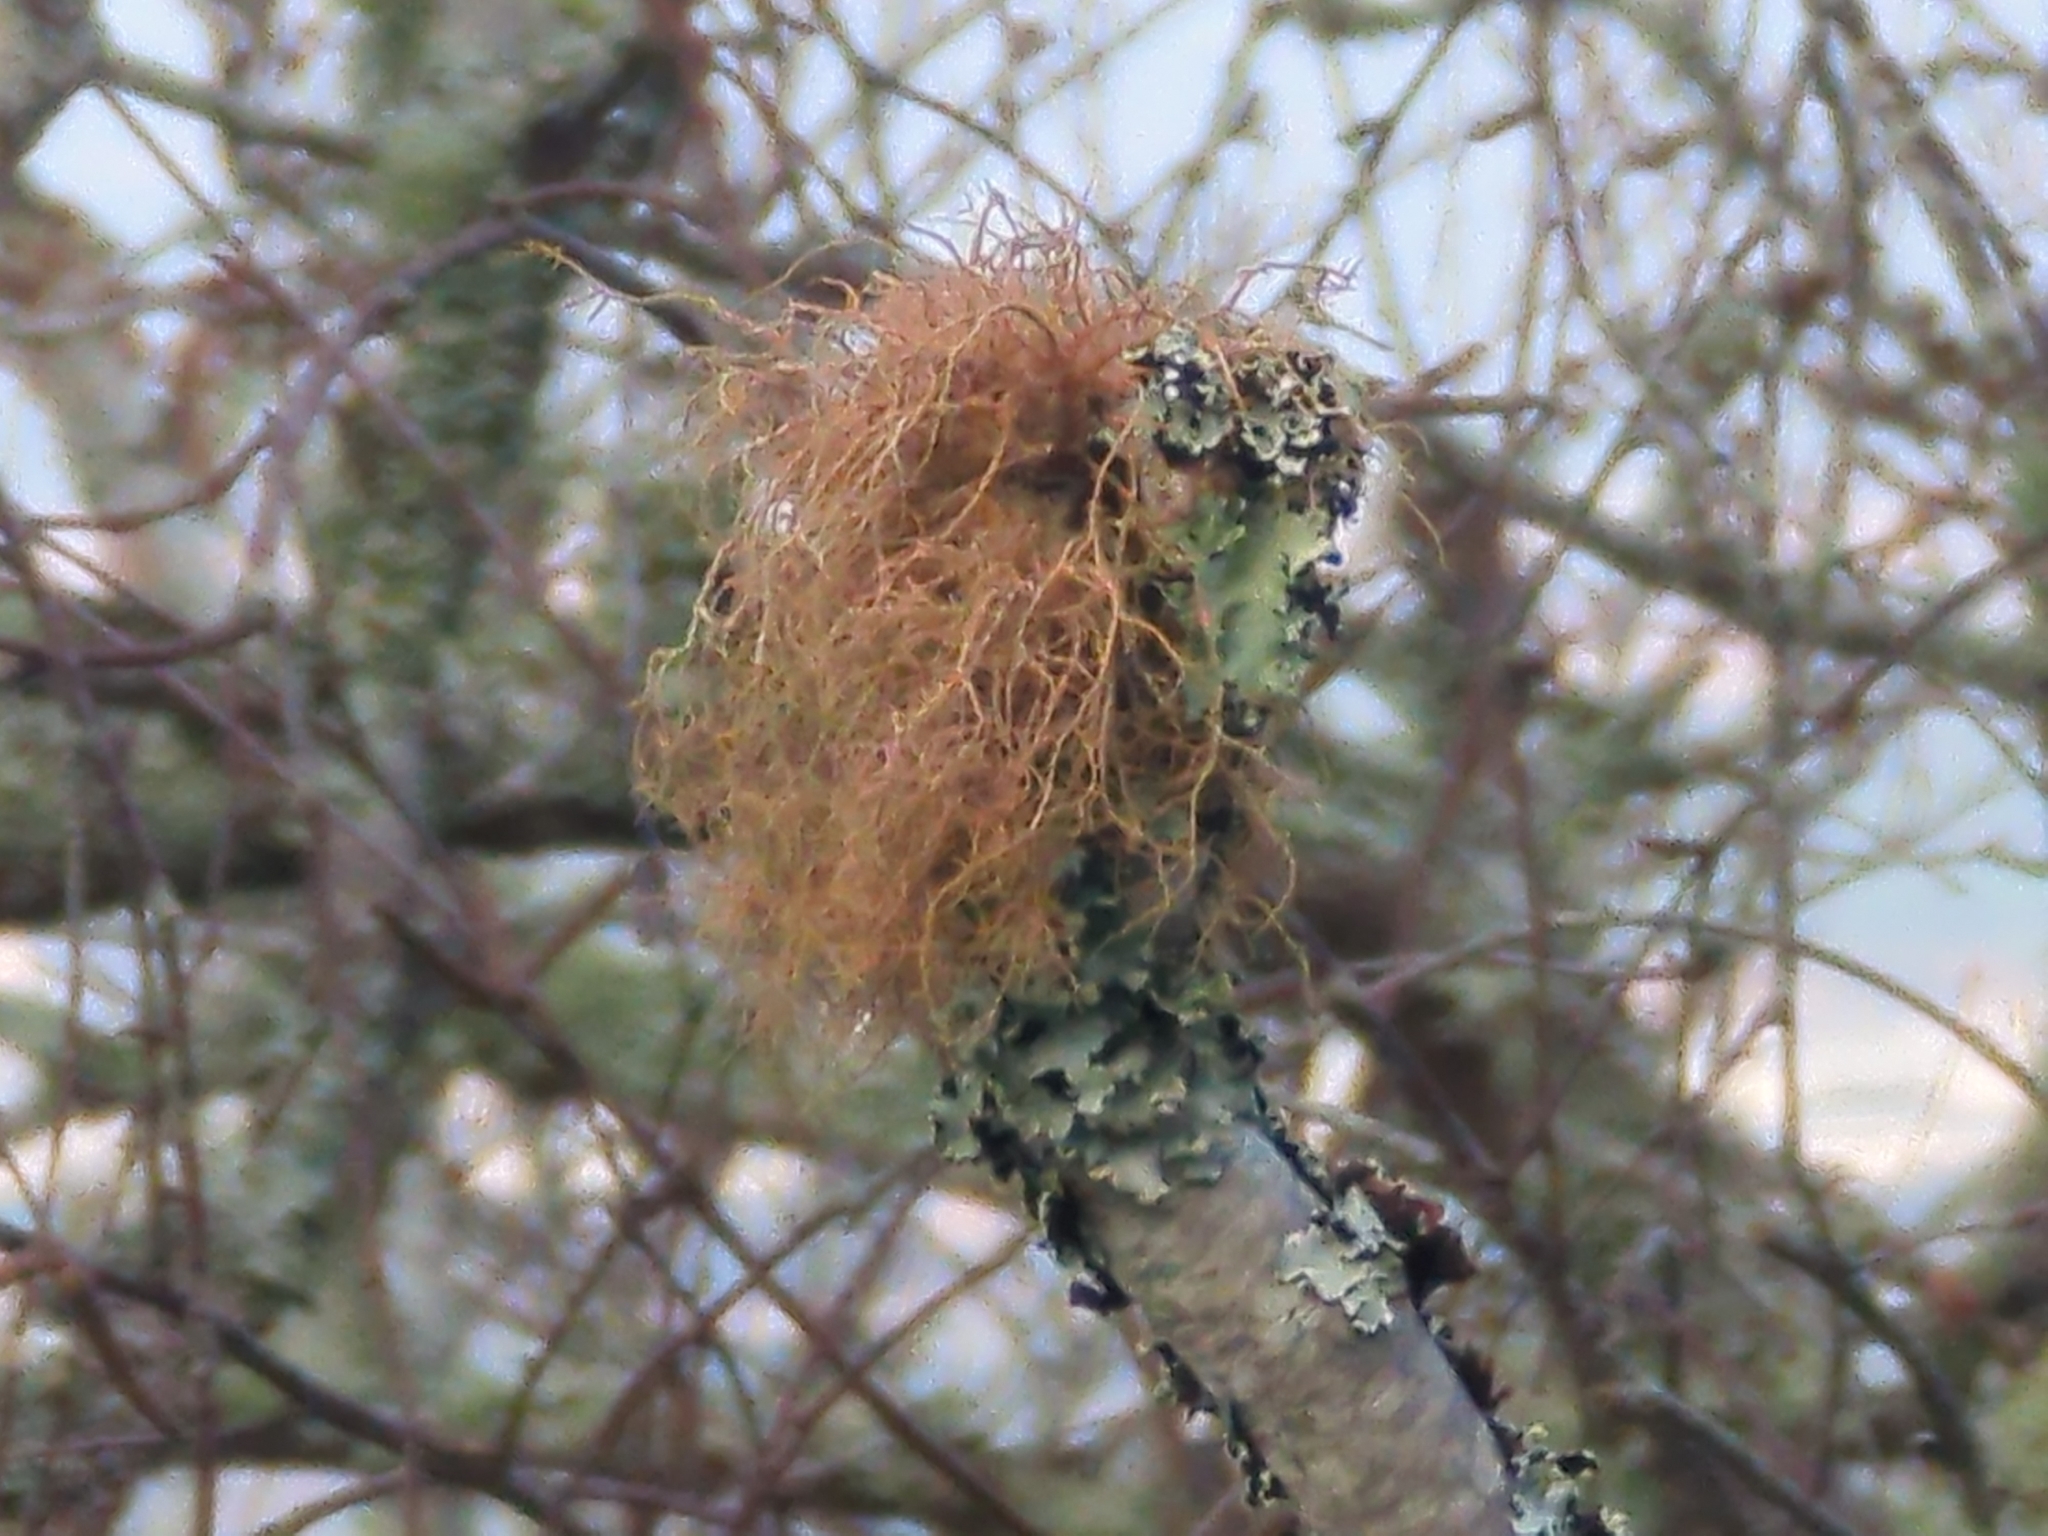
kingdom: Fungi
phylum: Ascomycota
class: Lecanoromycetes
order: Lecanorales
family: Parmeliaceae
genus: Usnea
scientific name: Usnea rubicunda
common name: Red beard lichen
